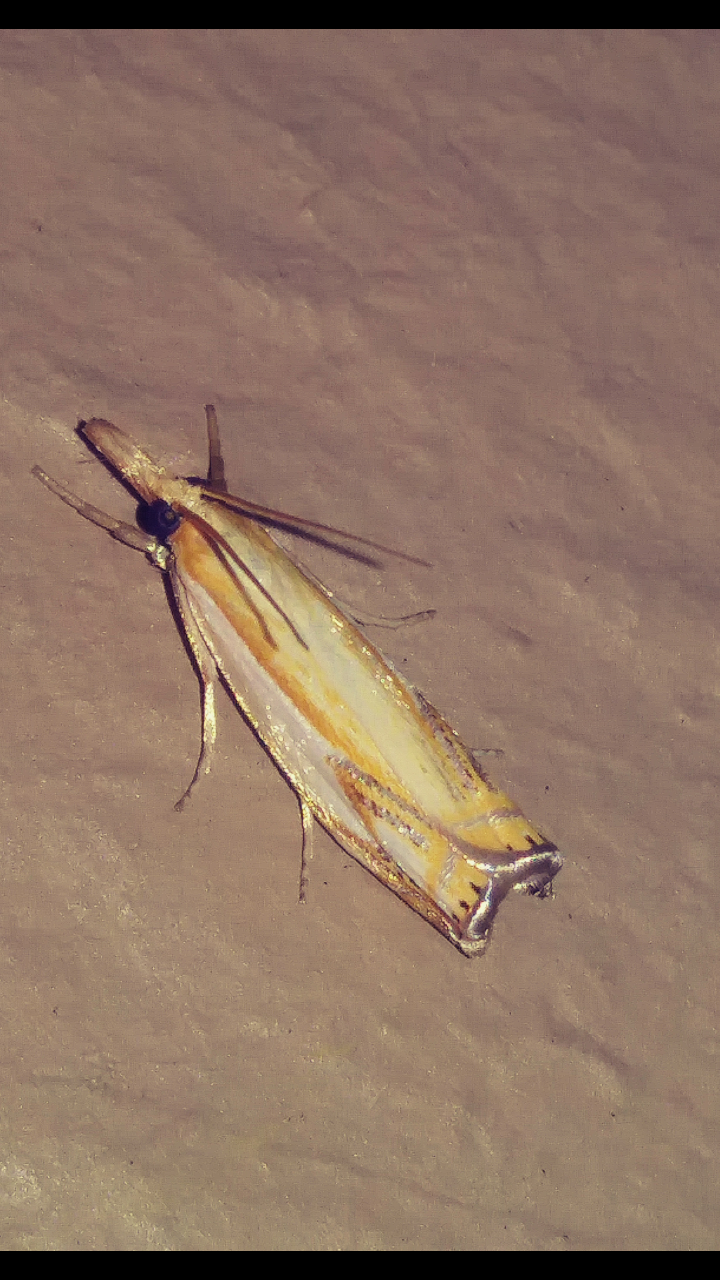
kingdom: Animalia
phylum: Arthropoda
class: Insecta
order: Lepidoptera
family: Crambidae
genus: Crambus
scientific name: Crambus agitatellus
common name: Double-banded grass-veneer
